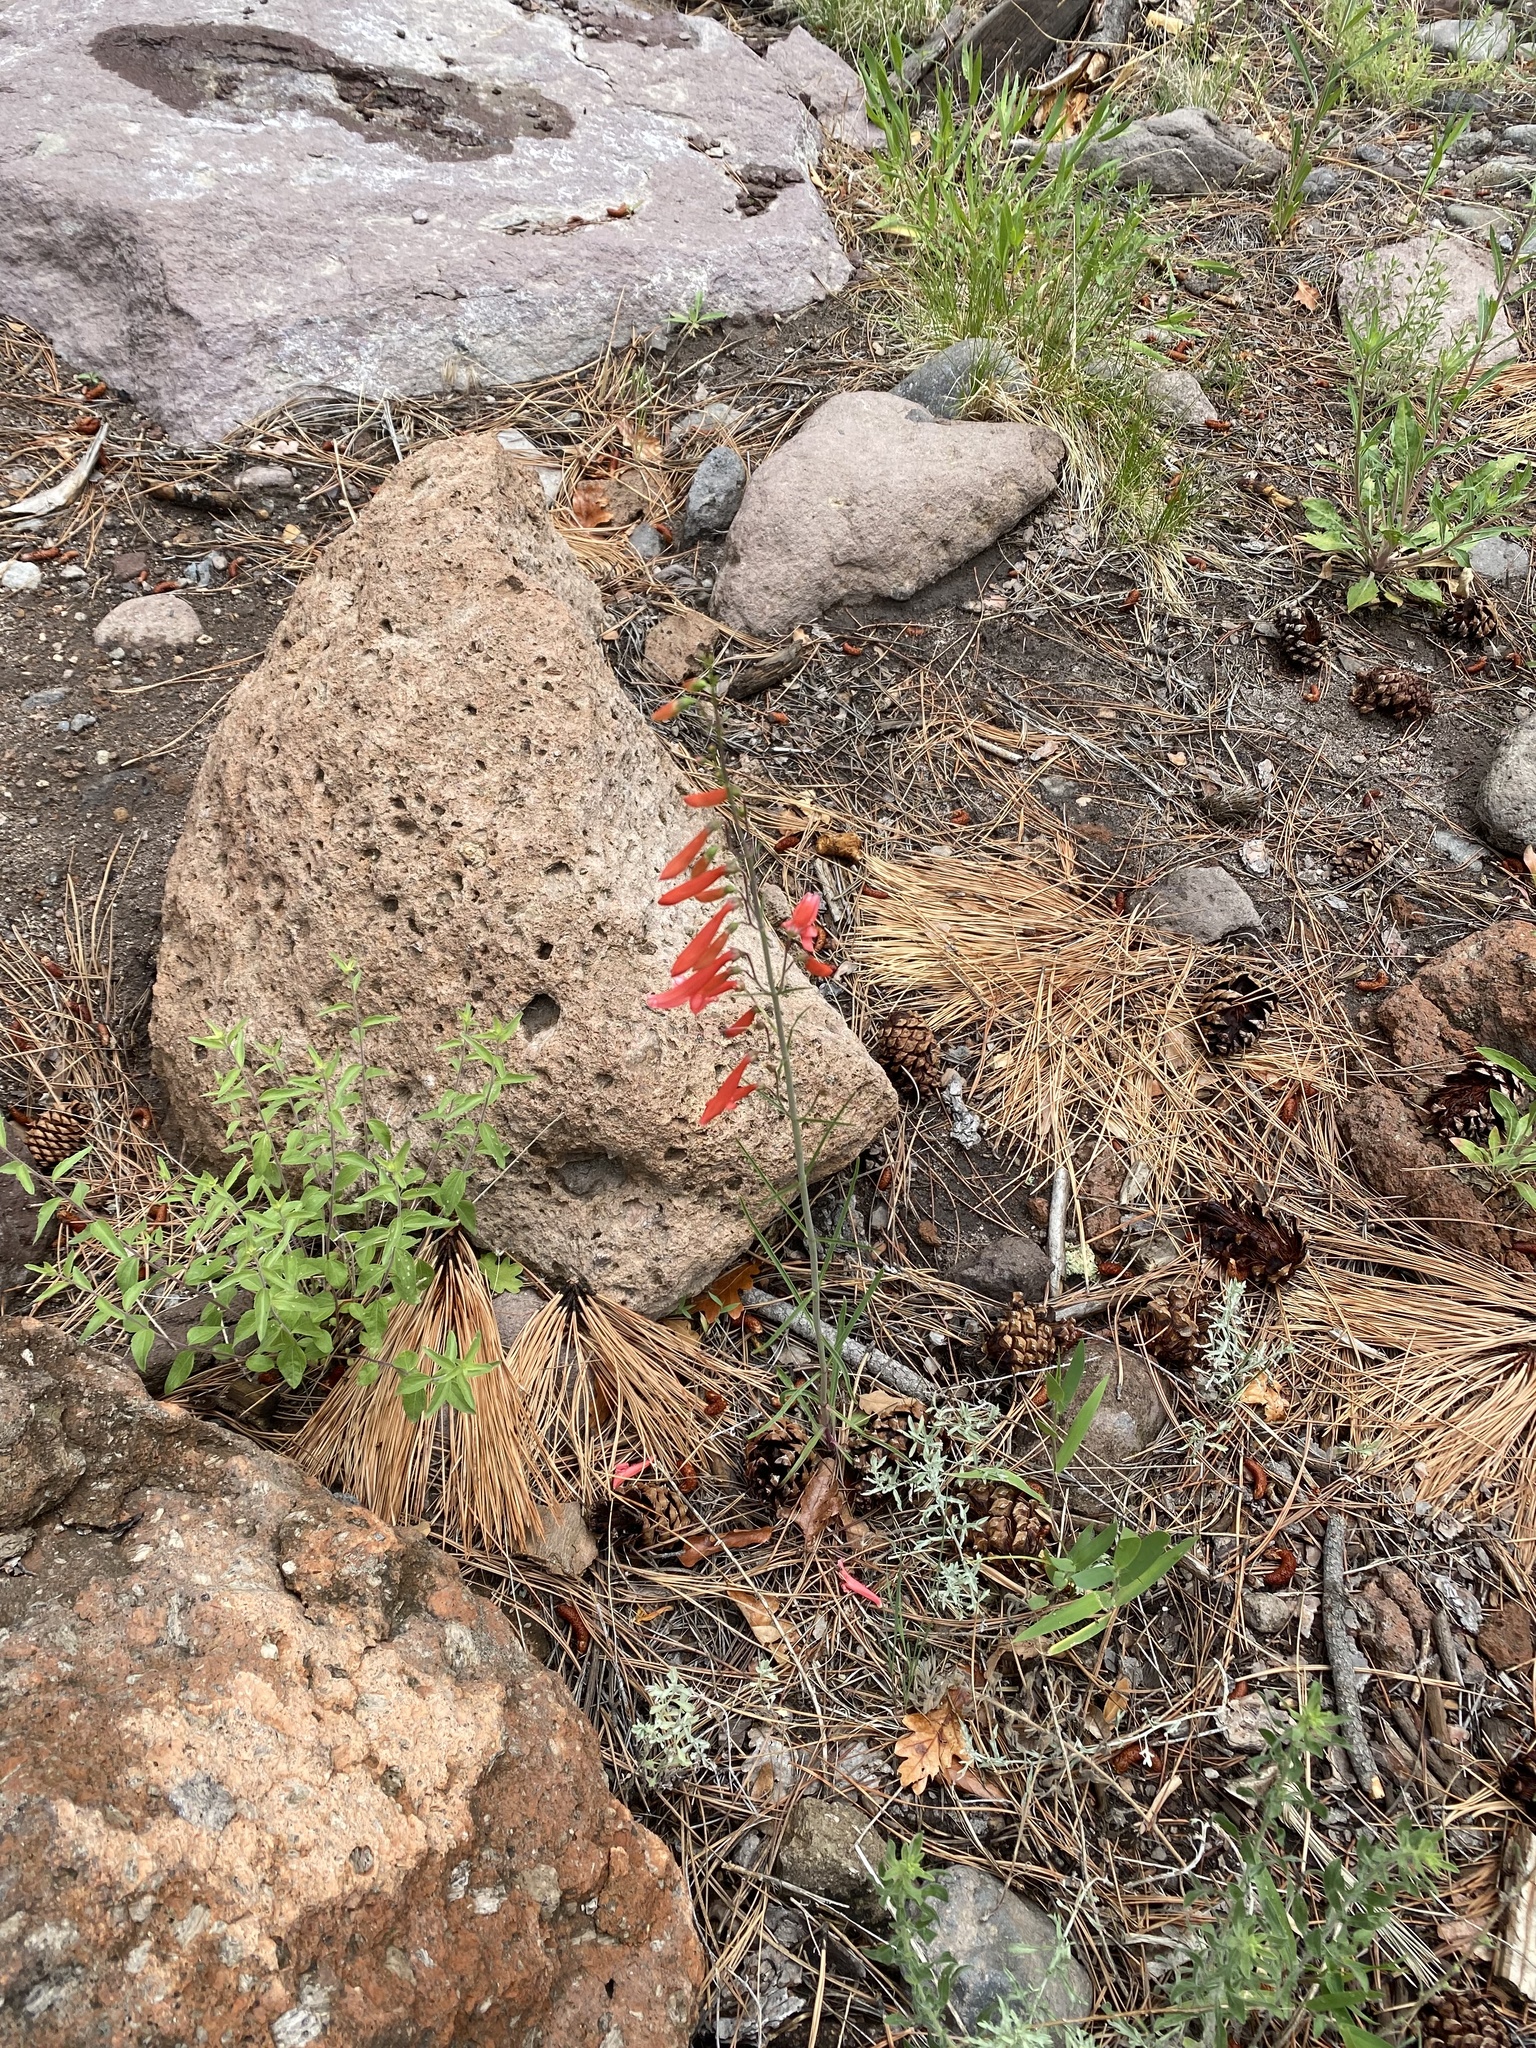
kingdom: Plantae
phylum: Tracheophyta
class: Magnoliopsida
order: Lamiales
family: Plantaginaceae
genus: Penstemon
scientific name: Penstemon barbatus
